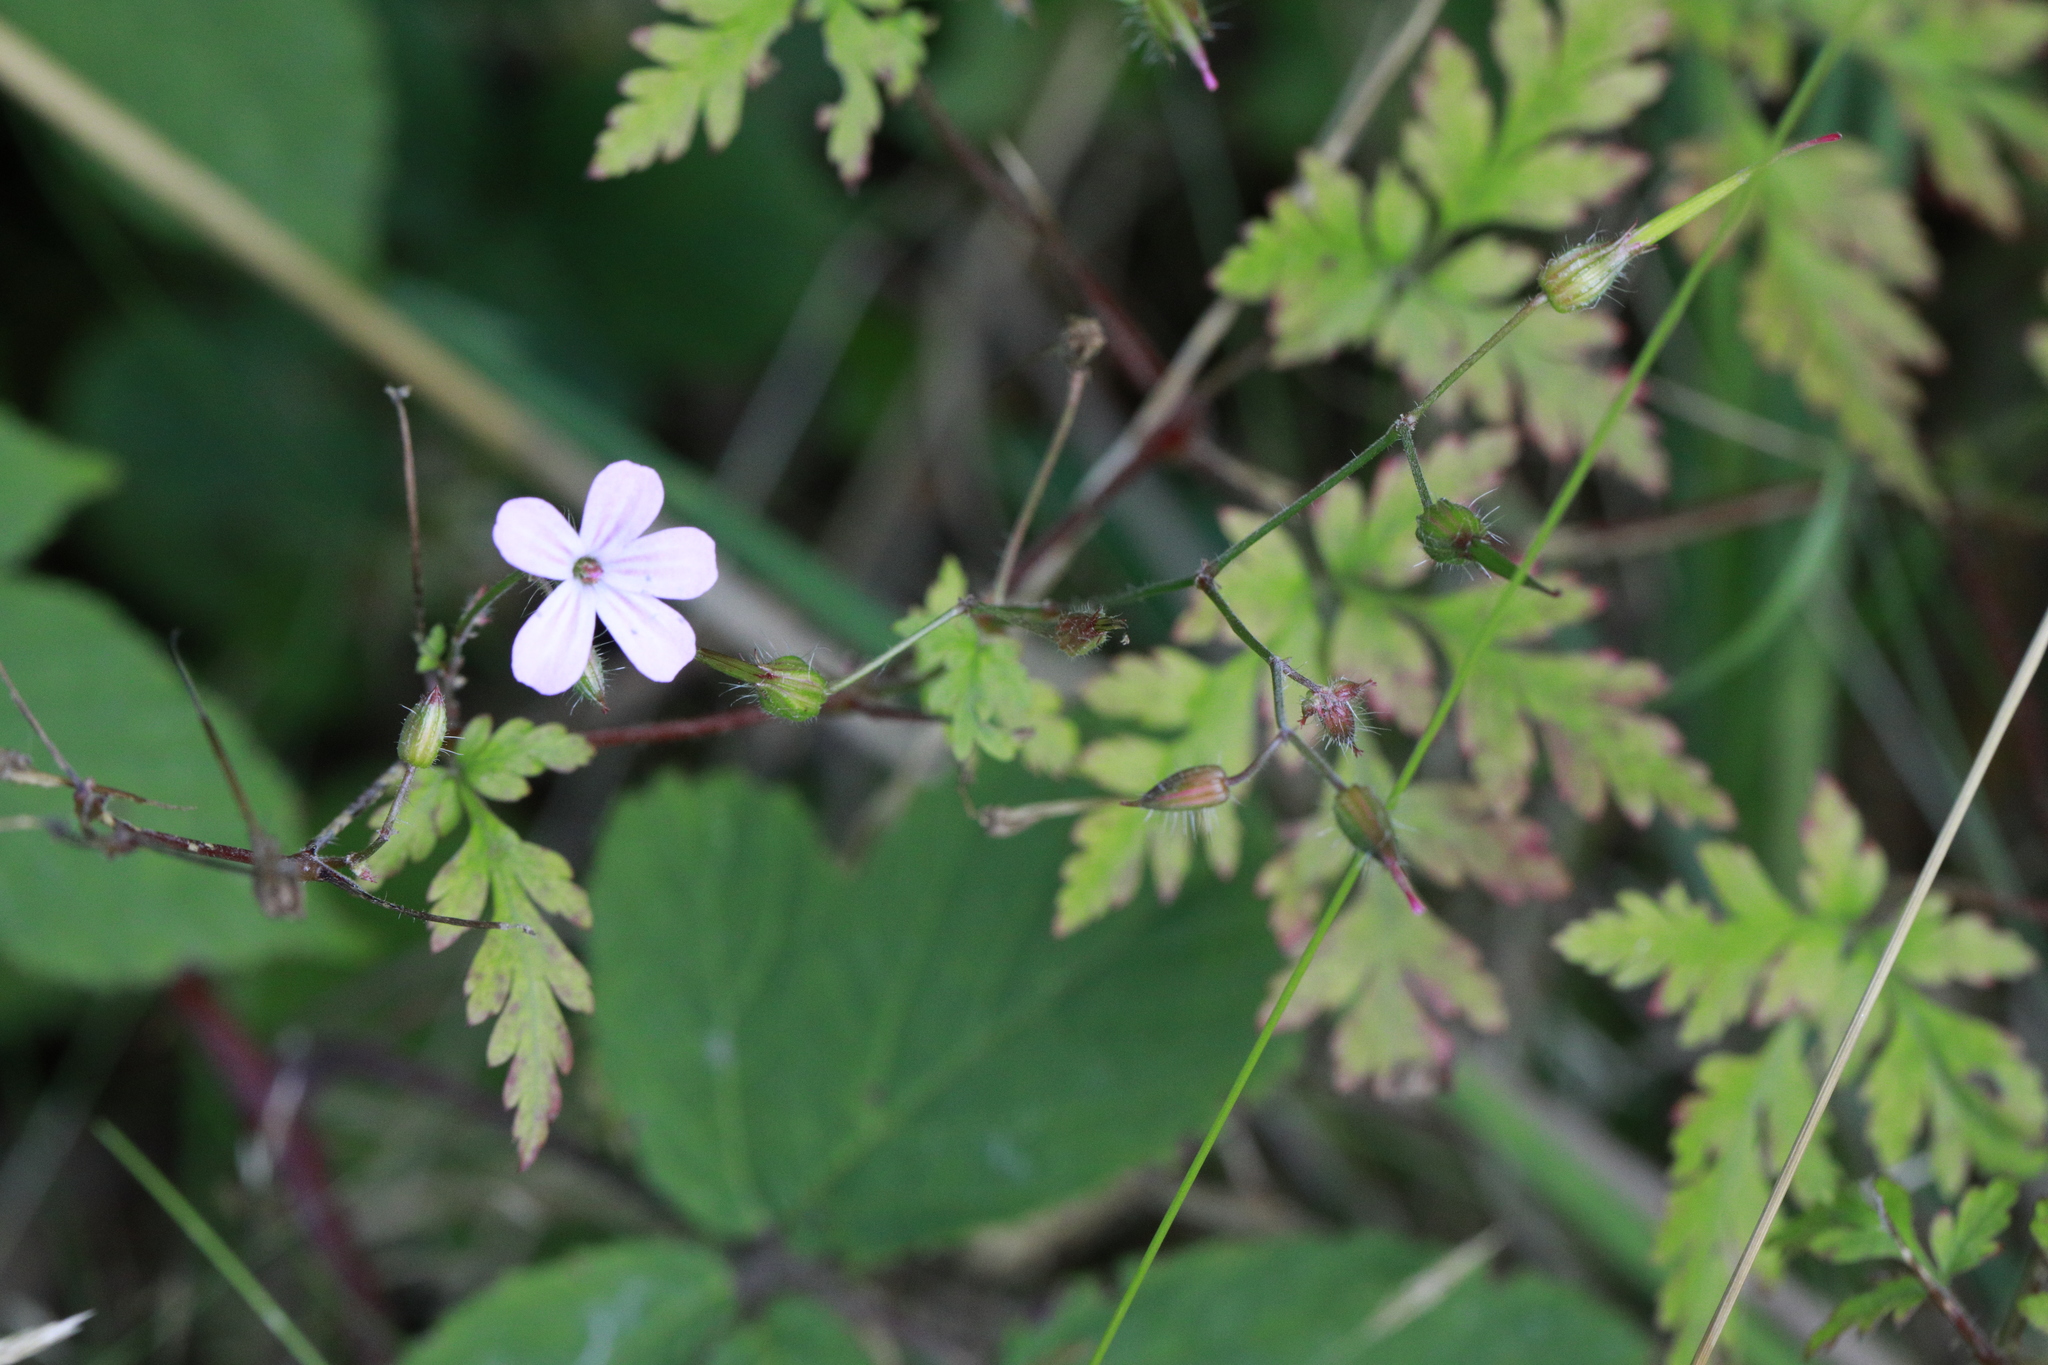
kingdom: Plantae
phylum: Tracheophyta
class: Magnoliopsida
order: Geraniales
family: Geraniaceae
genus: Geranium
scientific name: Geranium robertianum
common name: Herb-robert
